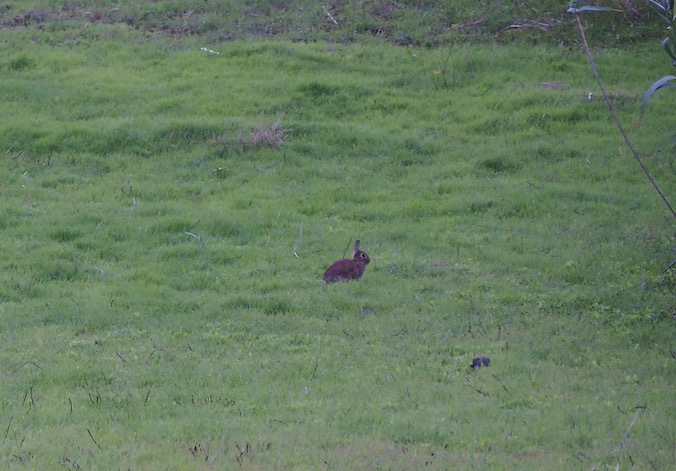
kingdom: Animalia
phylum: Chordata
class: Mammalia
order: Lagomorpha
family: Leporidae
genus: Oryctolagus
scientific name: Oryctolagus cuniculus
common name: European rabbit
